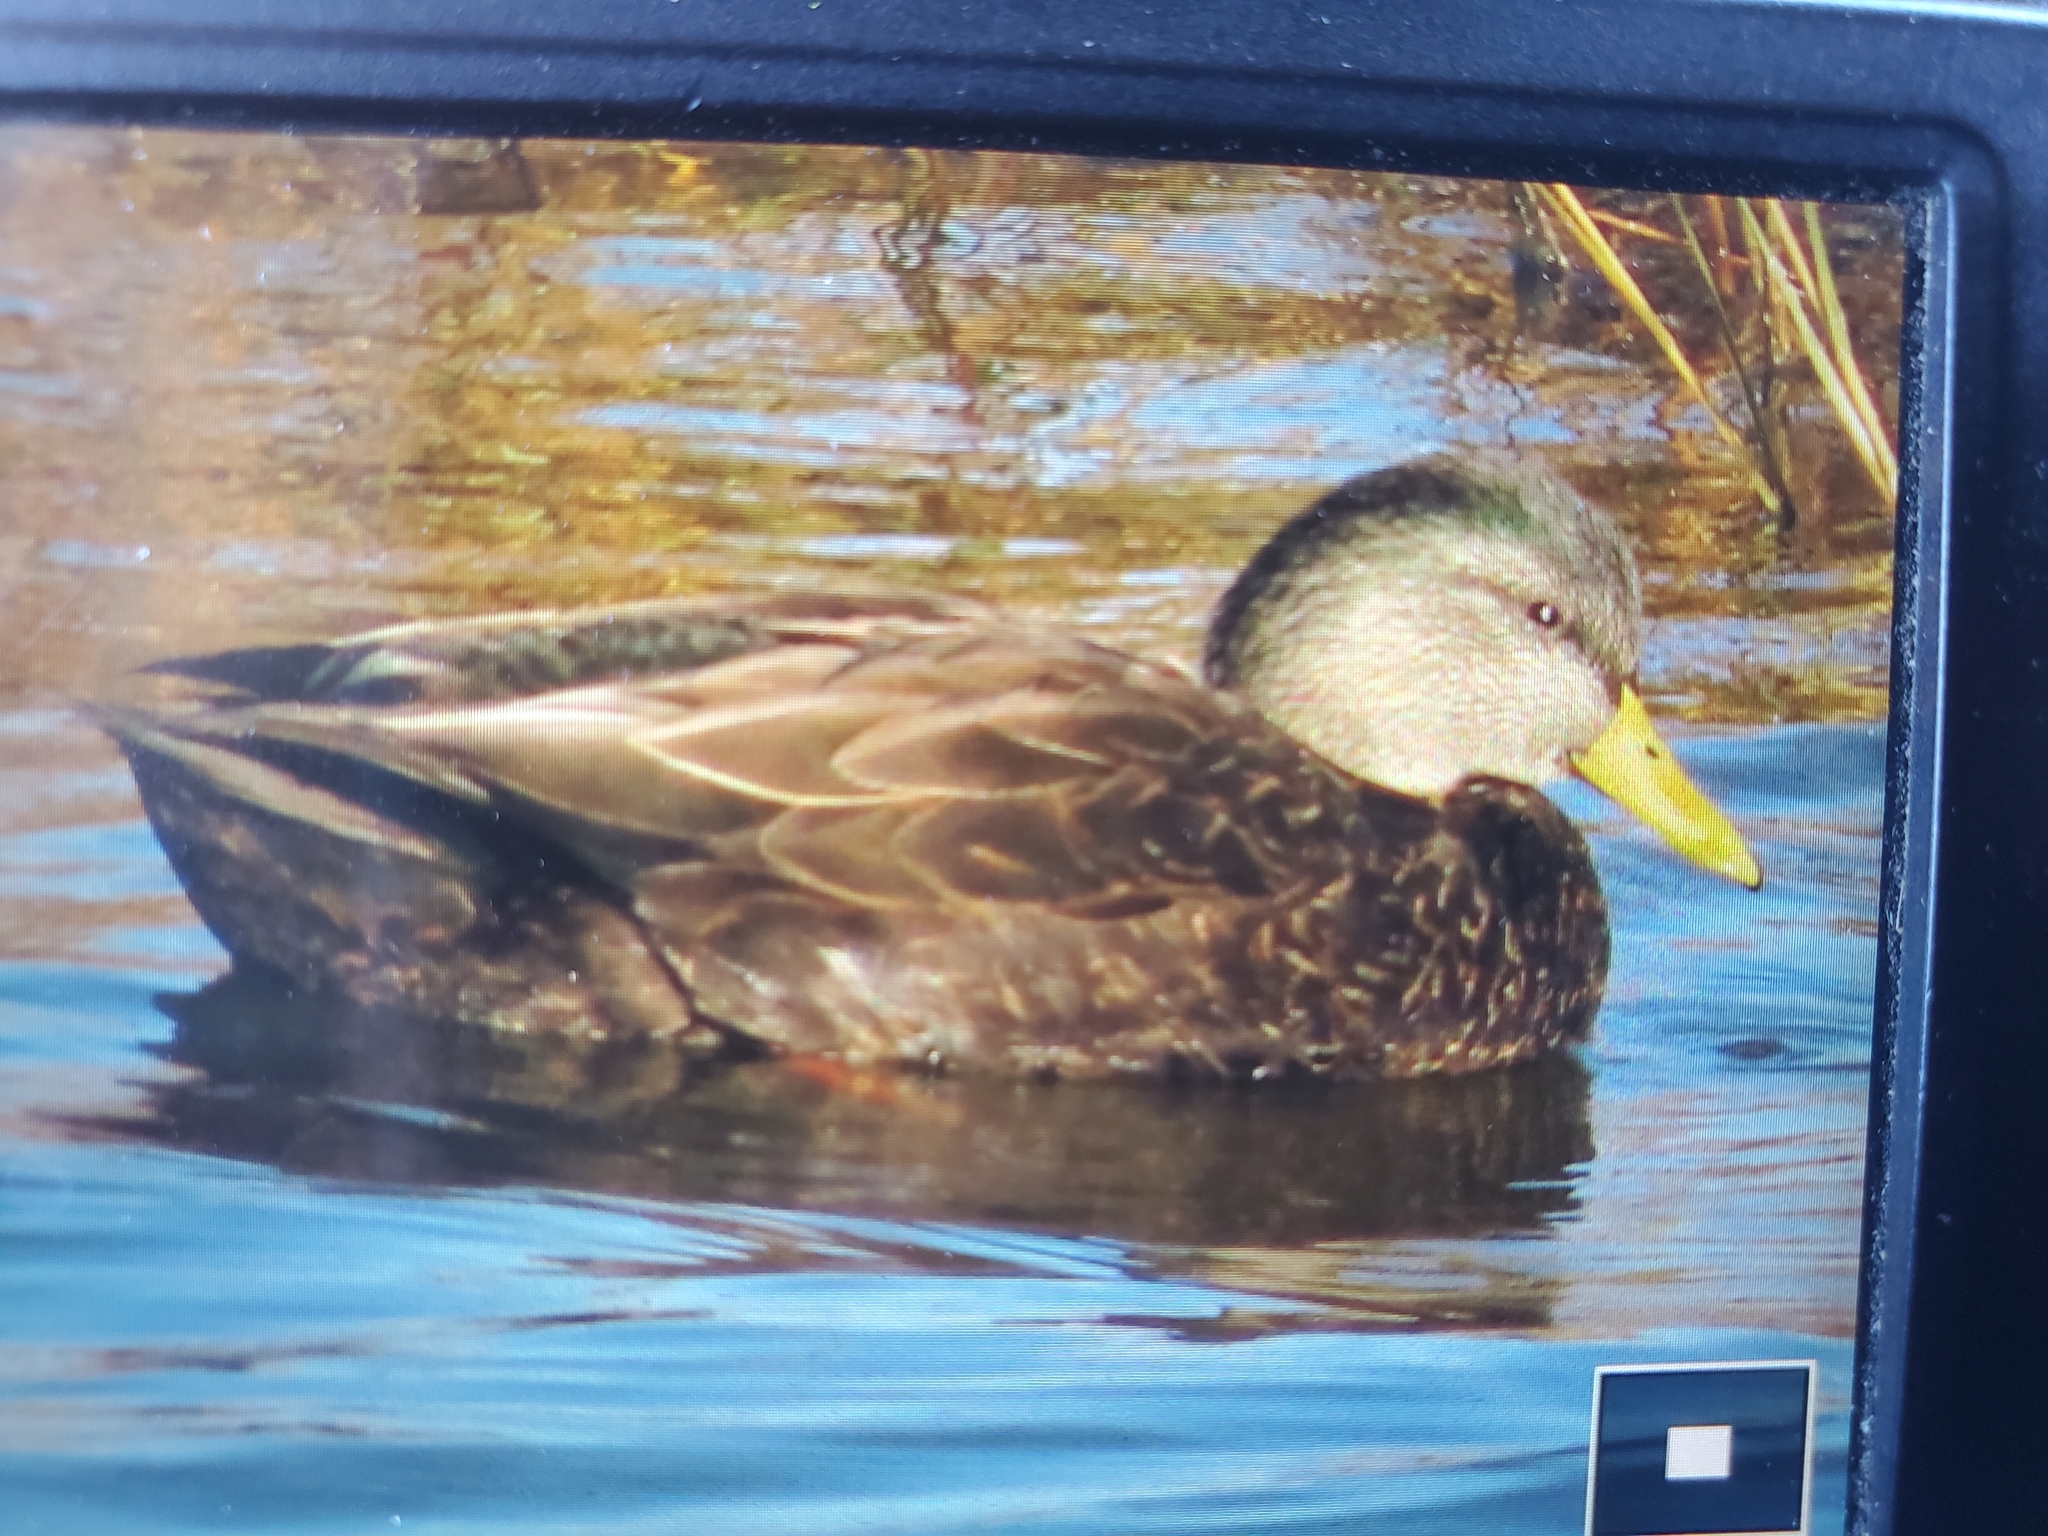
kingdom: Animalia
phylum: Chordata
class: Aves
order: Anseriformes
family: Anatidae
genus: Anas
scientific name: Anas rubripes
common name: American black duck
